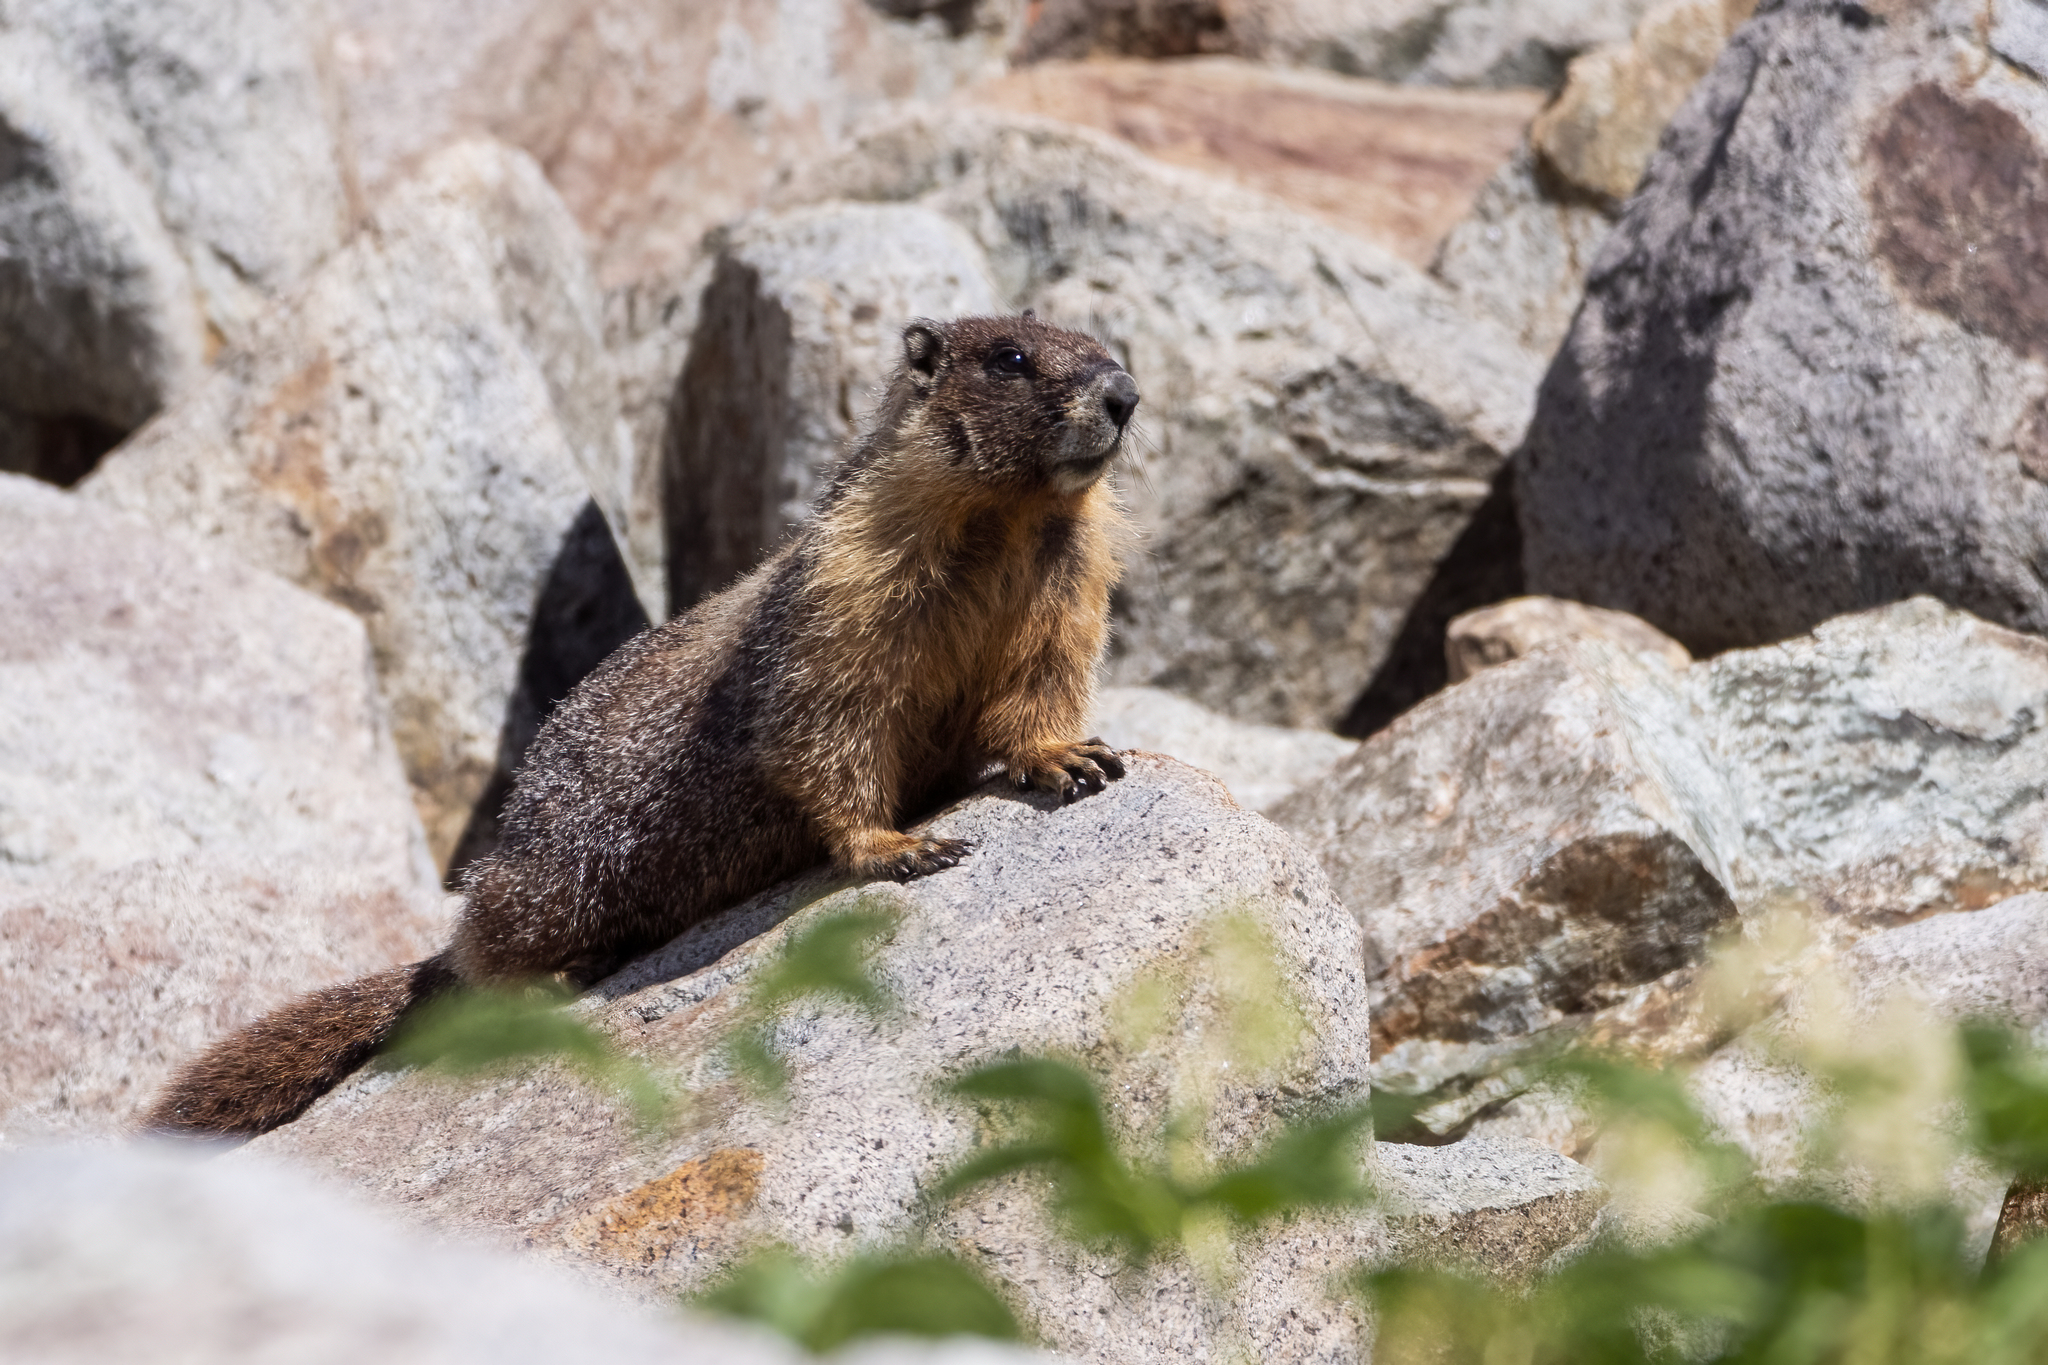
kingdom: Animalia
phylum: Chordata
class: Mammalia
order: Rodentia
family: Sciuridae
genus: Marmota
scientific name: Marmota flaviventris
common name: Yellow-bellied marmot
